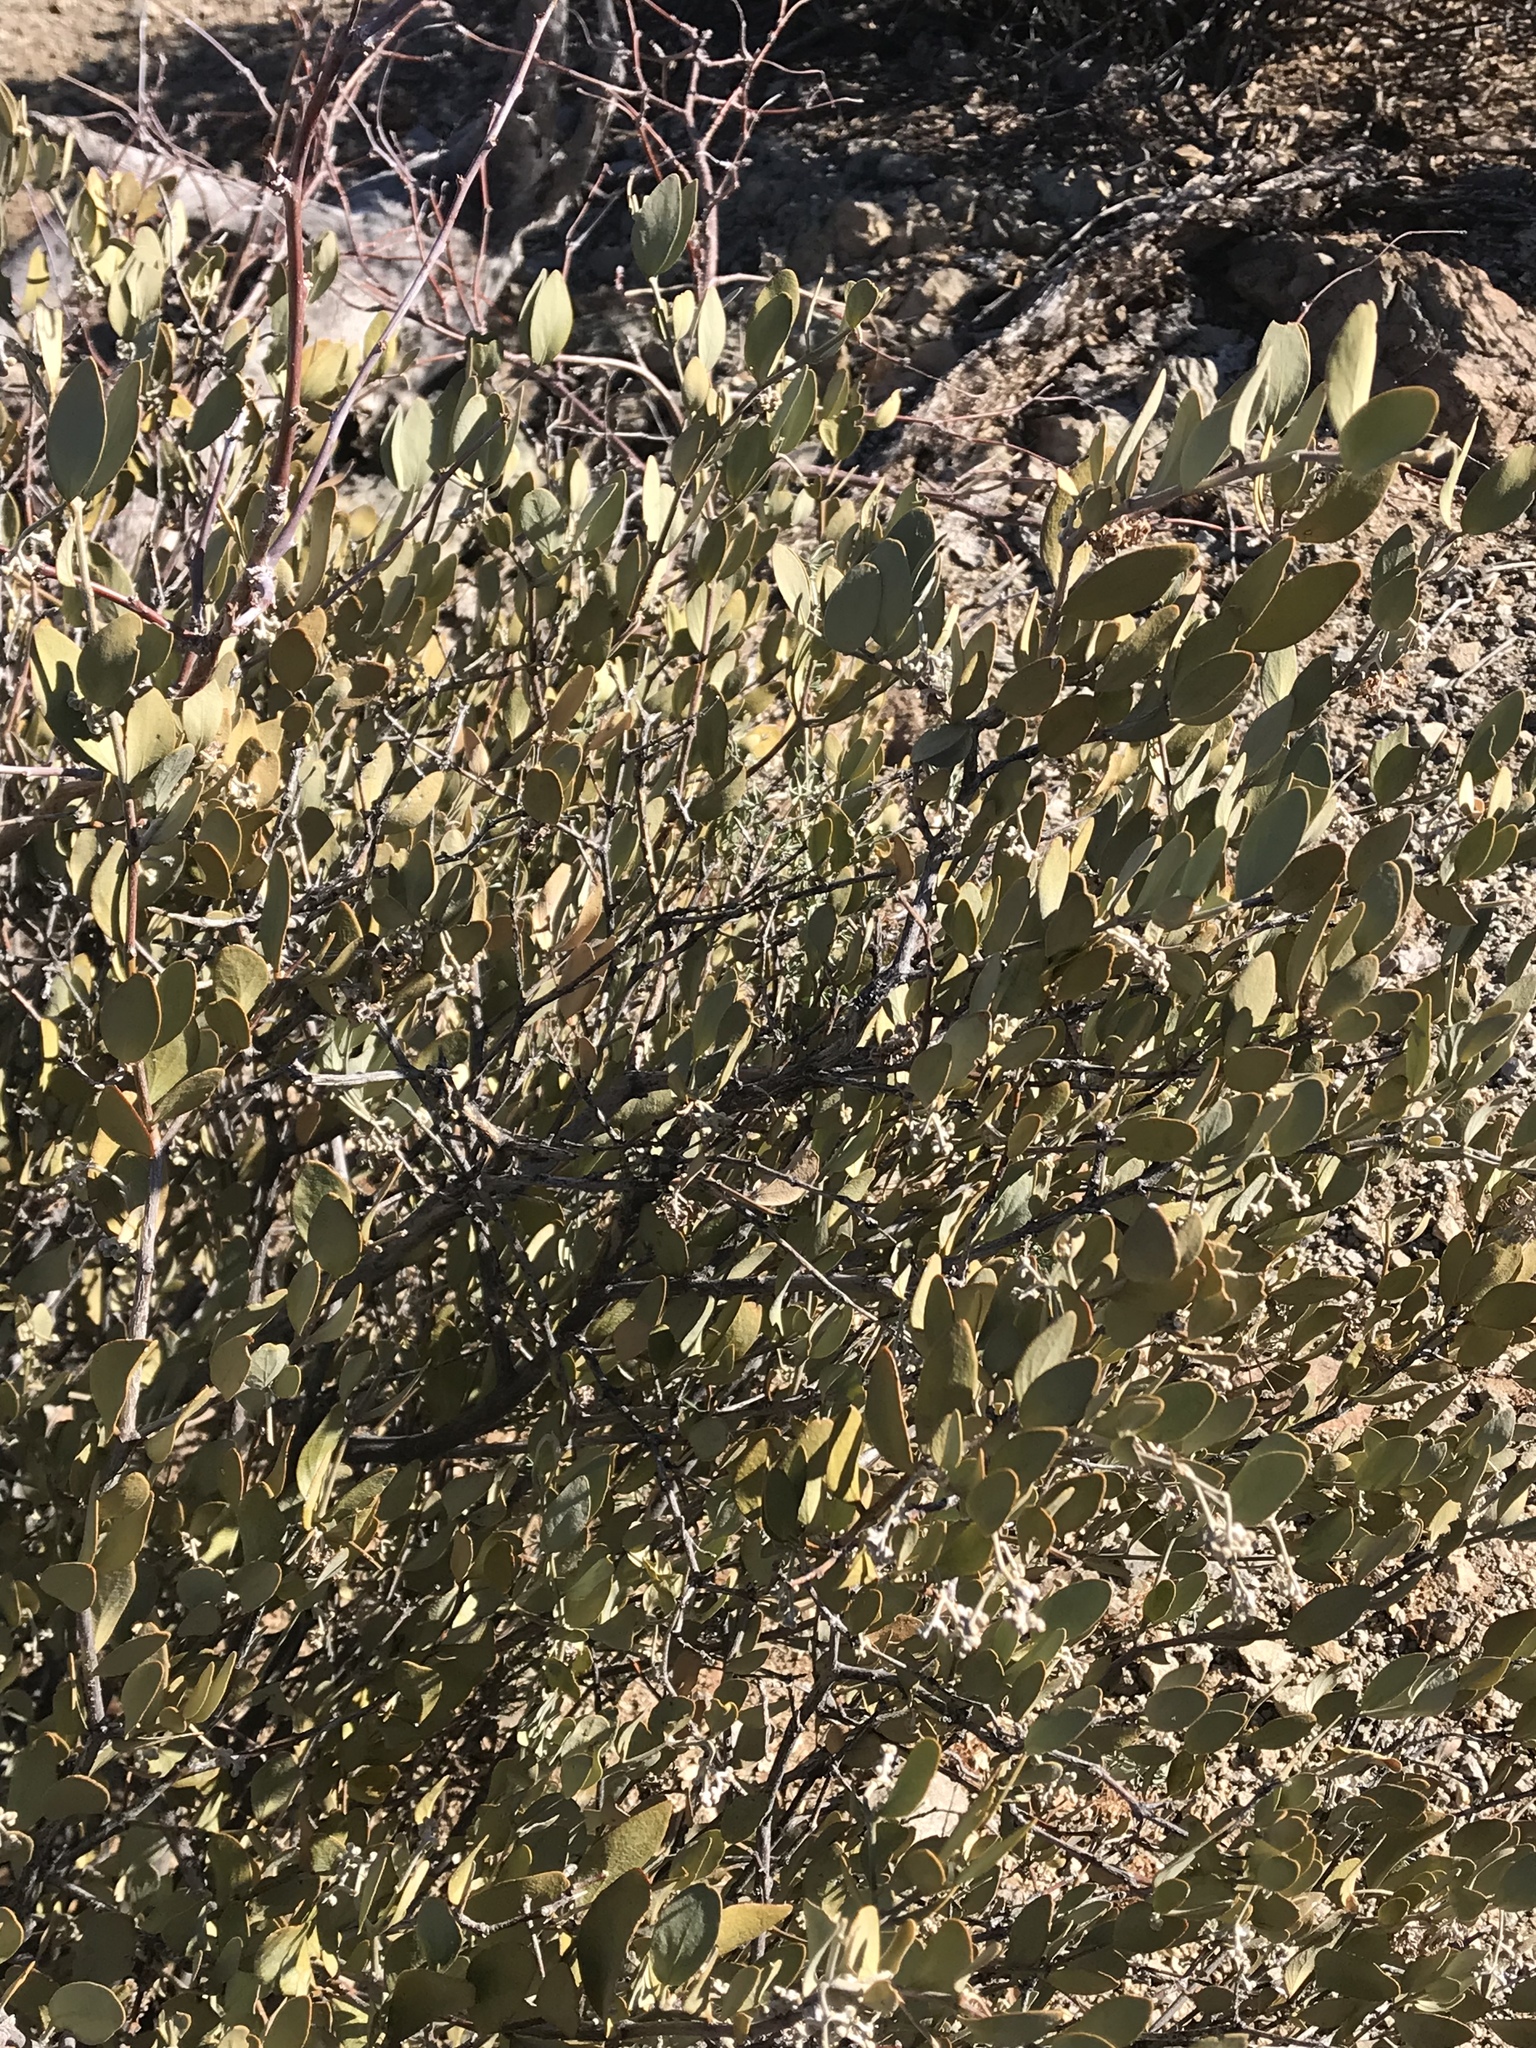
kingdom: Plantae
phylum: Tracheophyta
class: Magnoliopsida
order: Caryophyllales
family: Simmondsiaceae
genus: Simmondsia
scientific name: Simmondsia chinensis
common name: Jojoba
